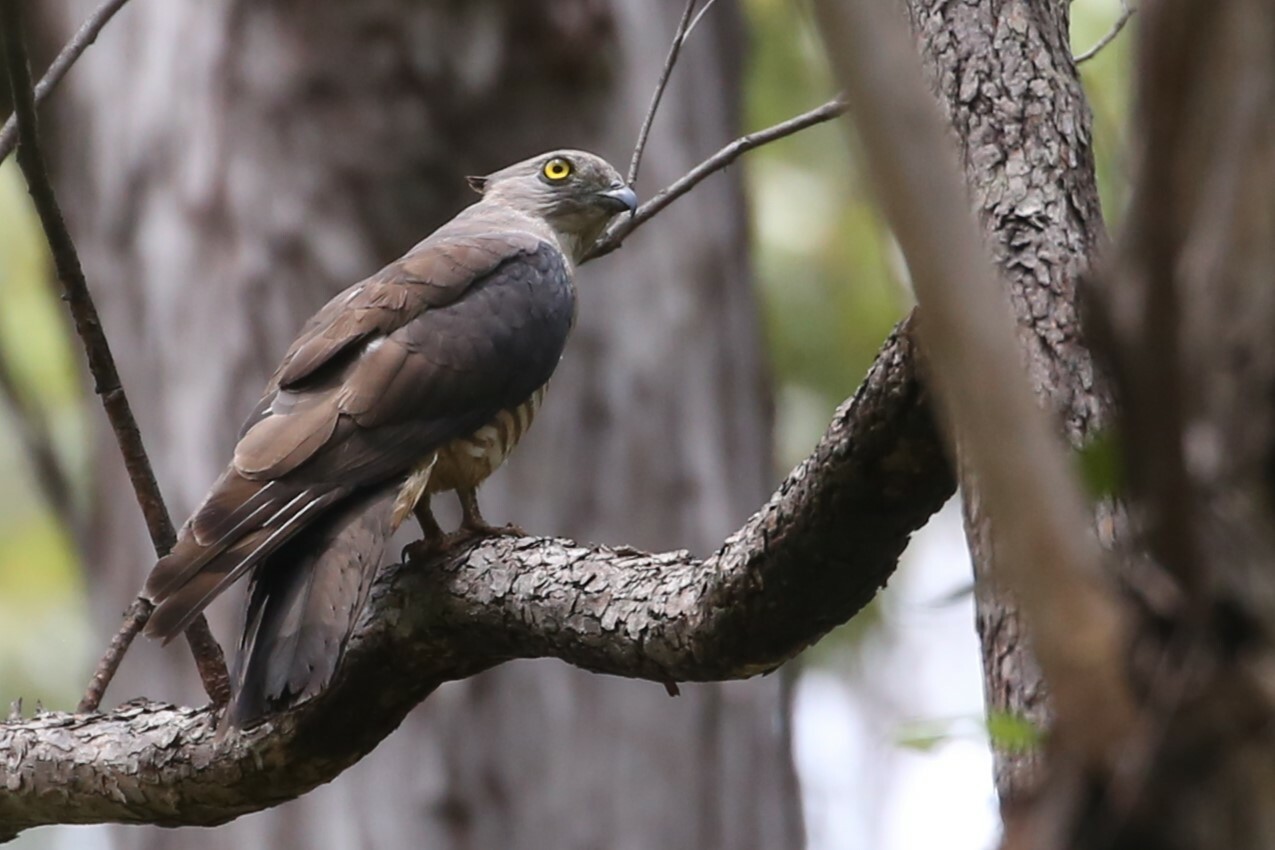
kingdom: Animalia
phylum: Chordata
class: Aves
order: Accipitriformes
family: Accipitridae
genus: Aviceda
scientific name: Aviceda subcristata
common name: Pacific baza
